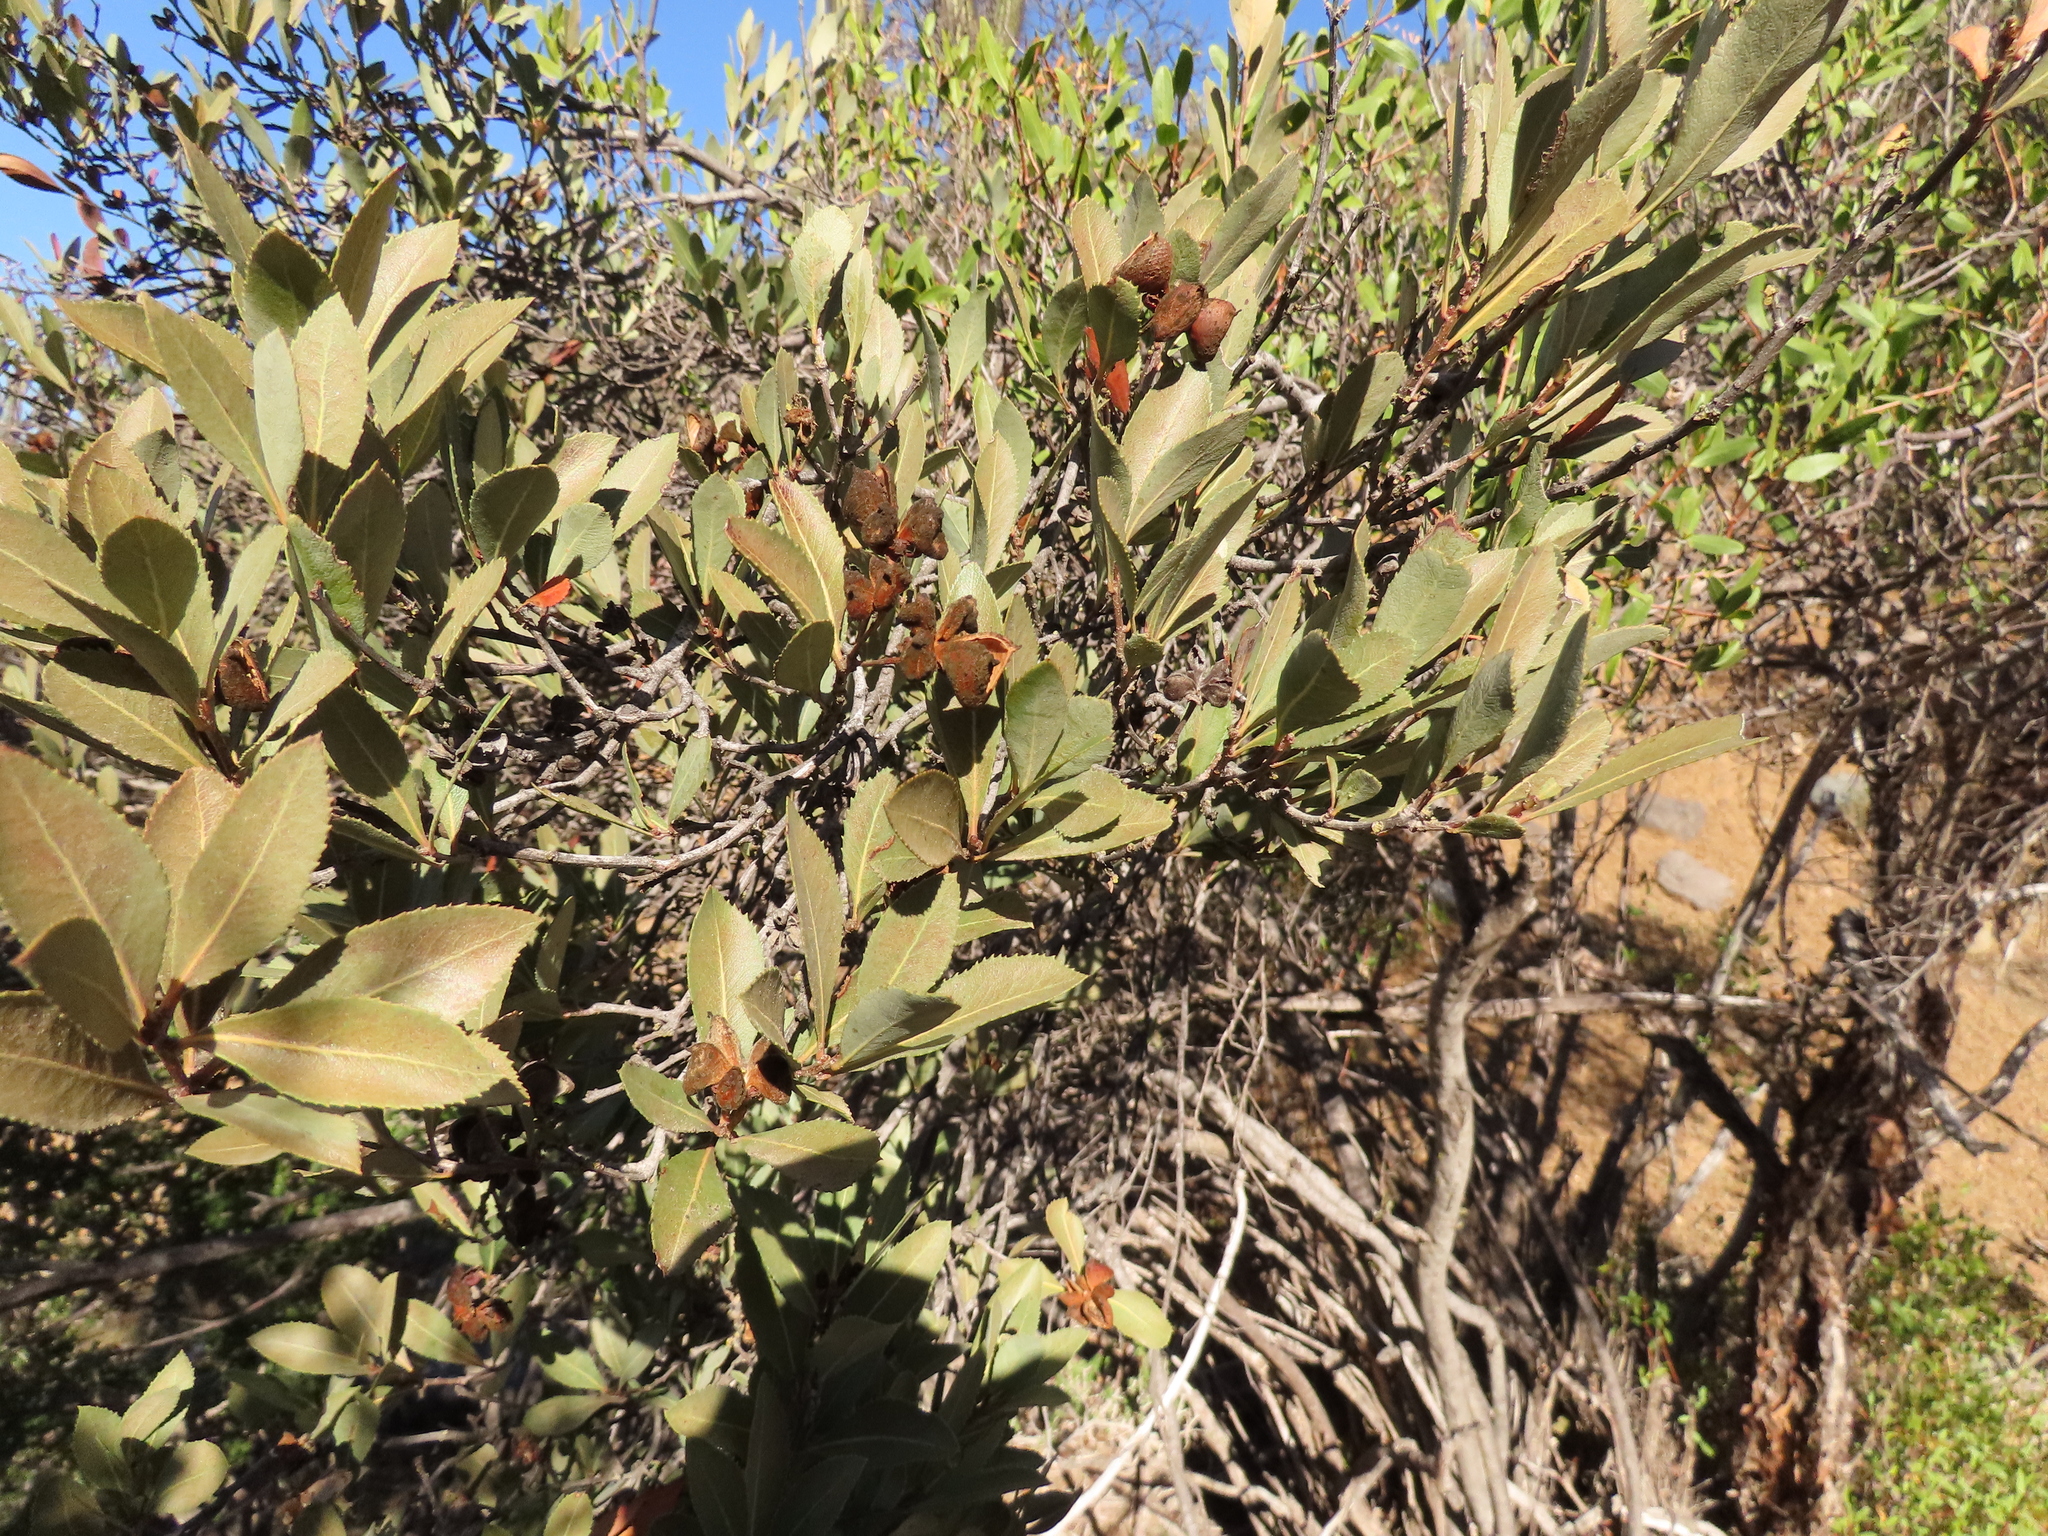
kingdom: Plantae
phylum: Tracheophyta
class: Magnoliopsida
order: Rosales
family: Rosaceae
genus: Kageneckia
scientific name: Kageneckia oblonga
